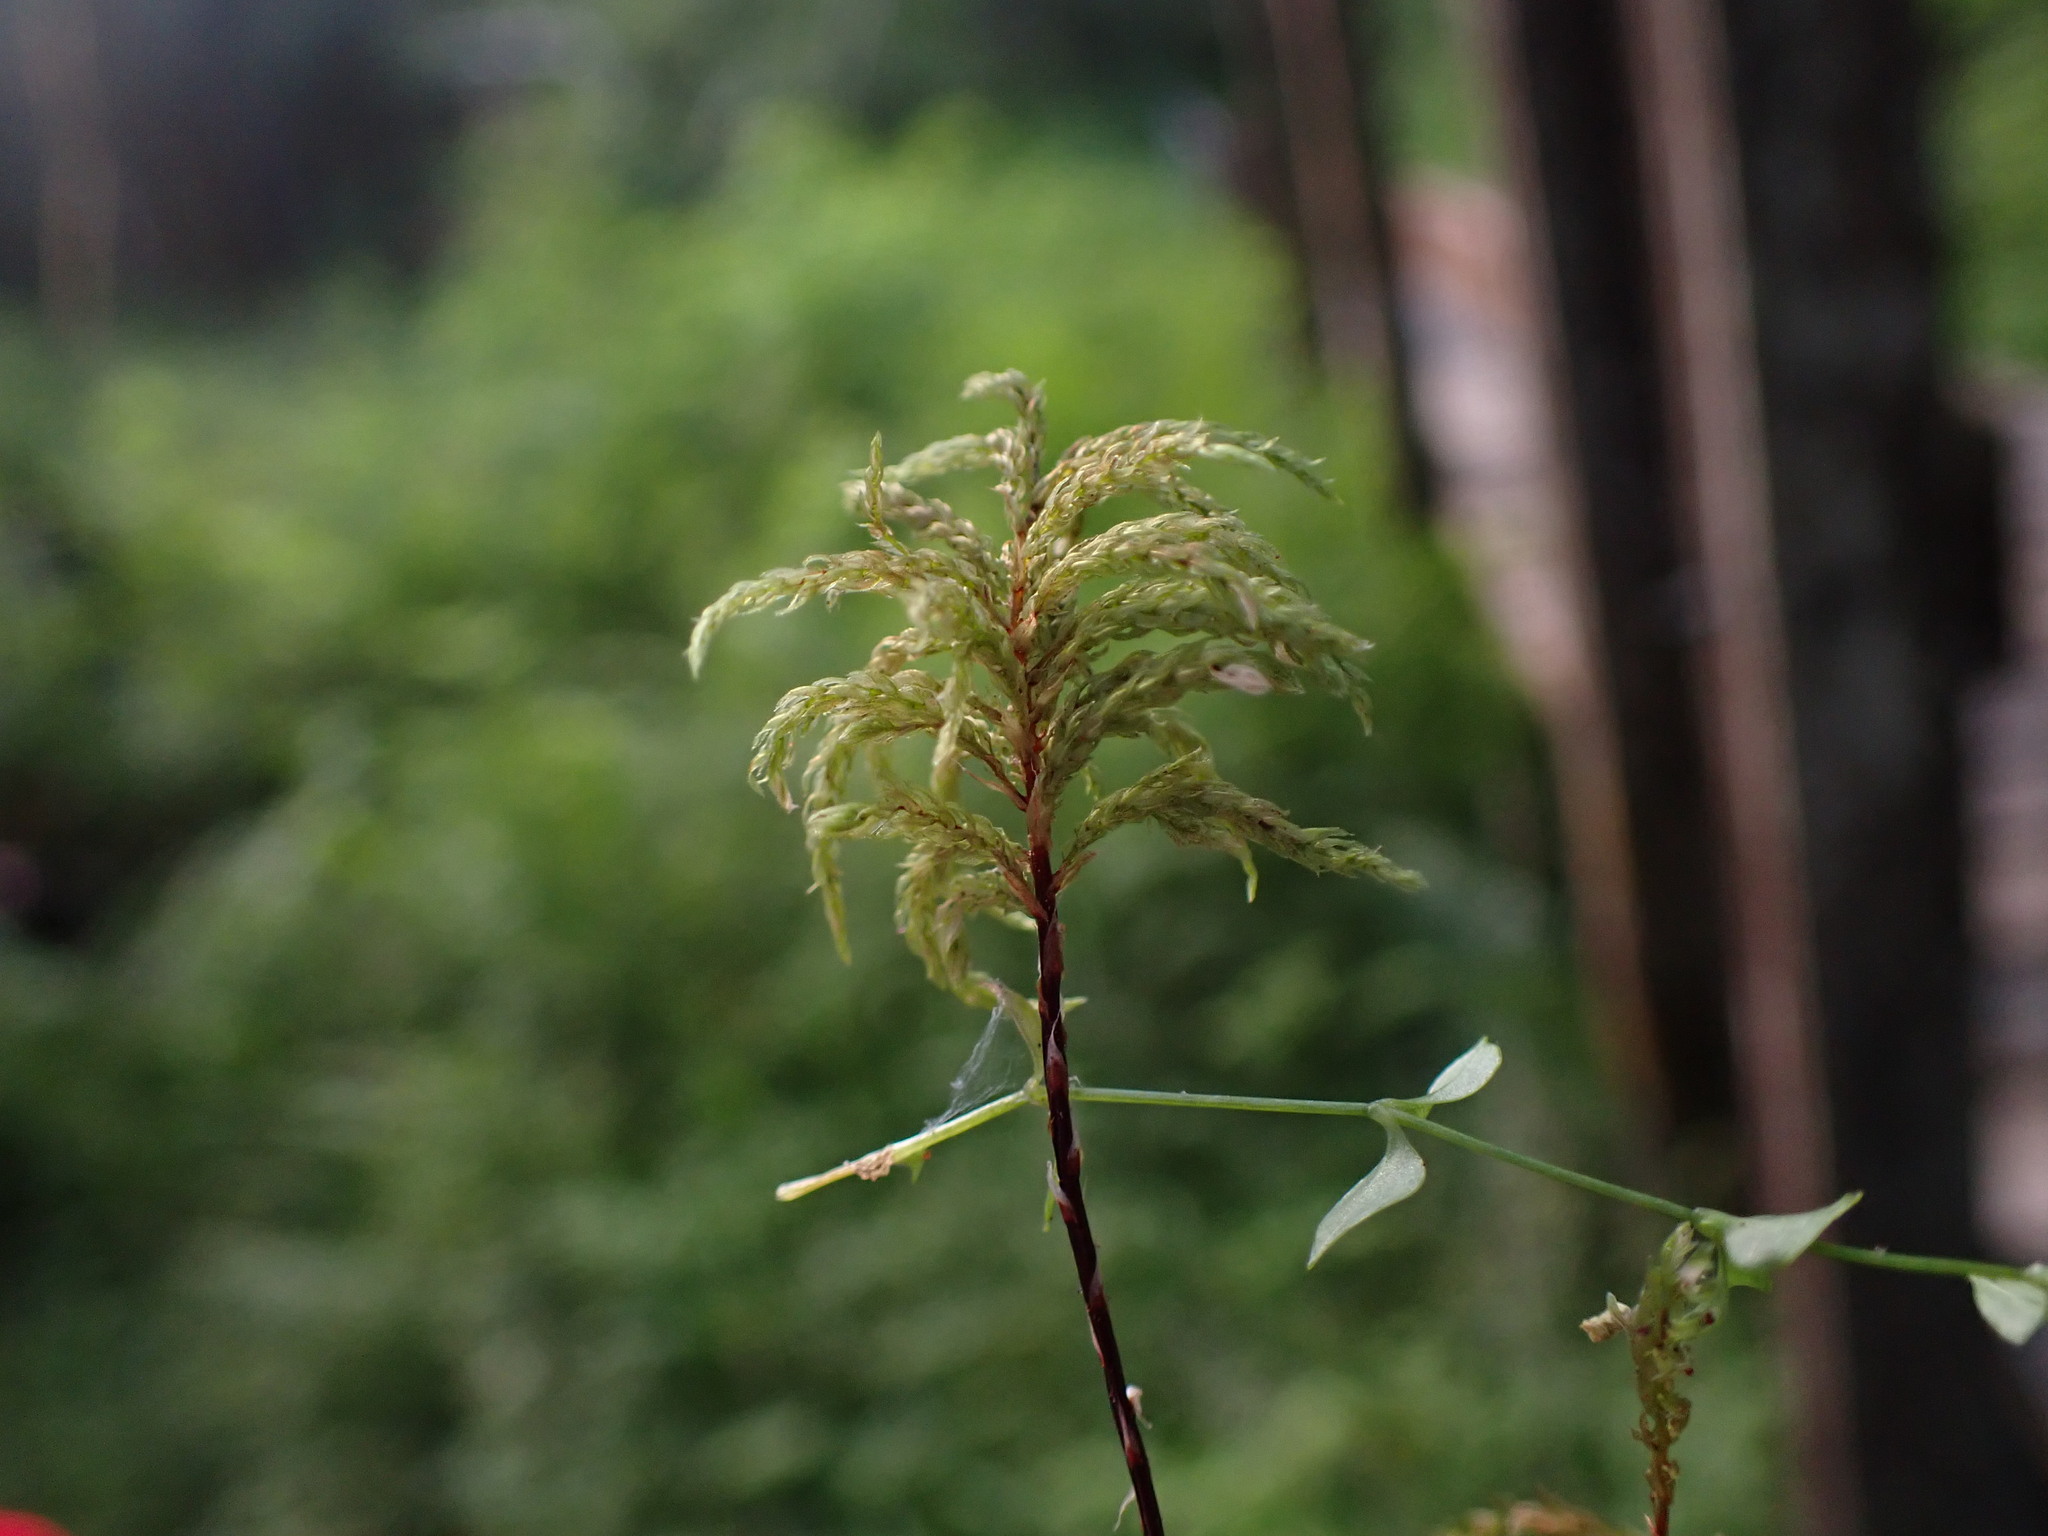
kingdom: Plantae
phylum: Bryophyta
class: Bryopsida
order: Bryales
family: Mniaceae
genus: Leucolepis
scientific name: Leucolepis acanthoneura
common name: Leucolepis umbrella moss
